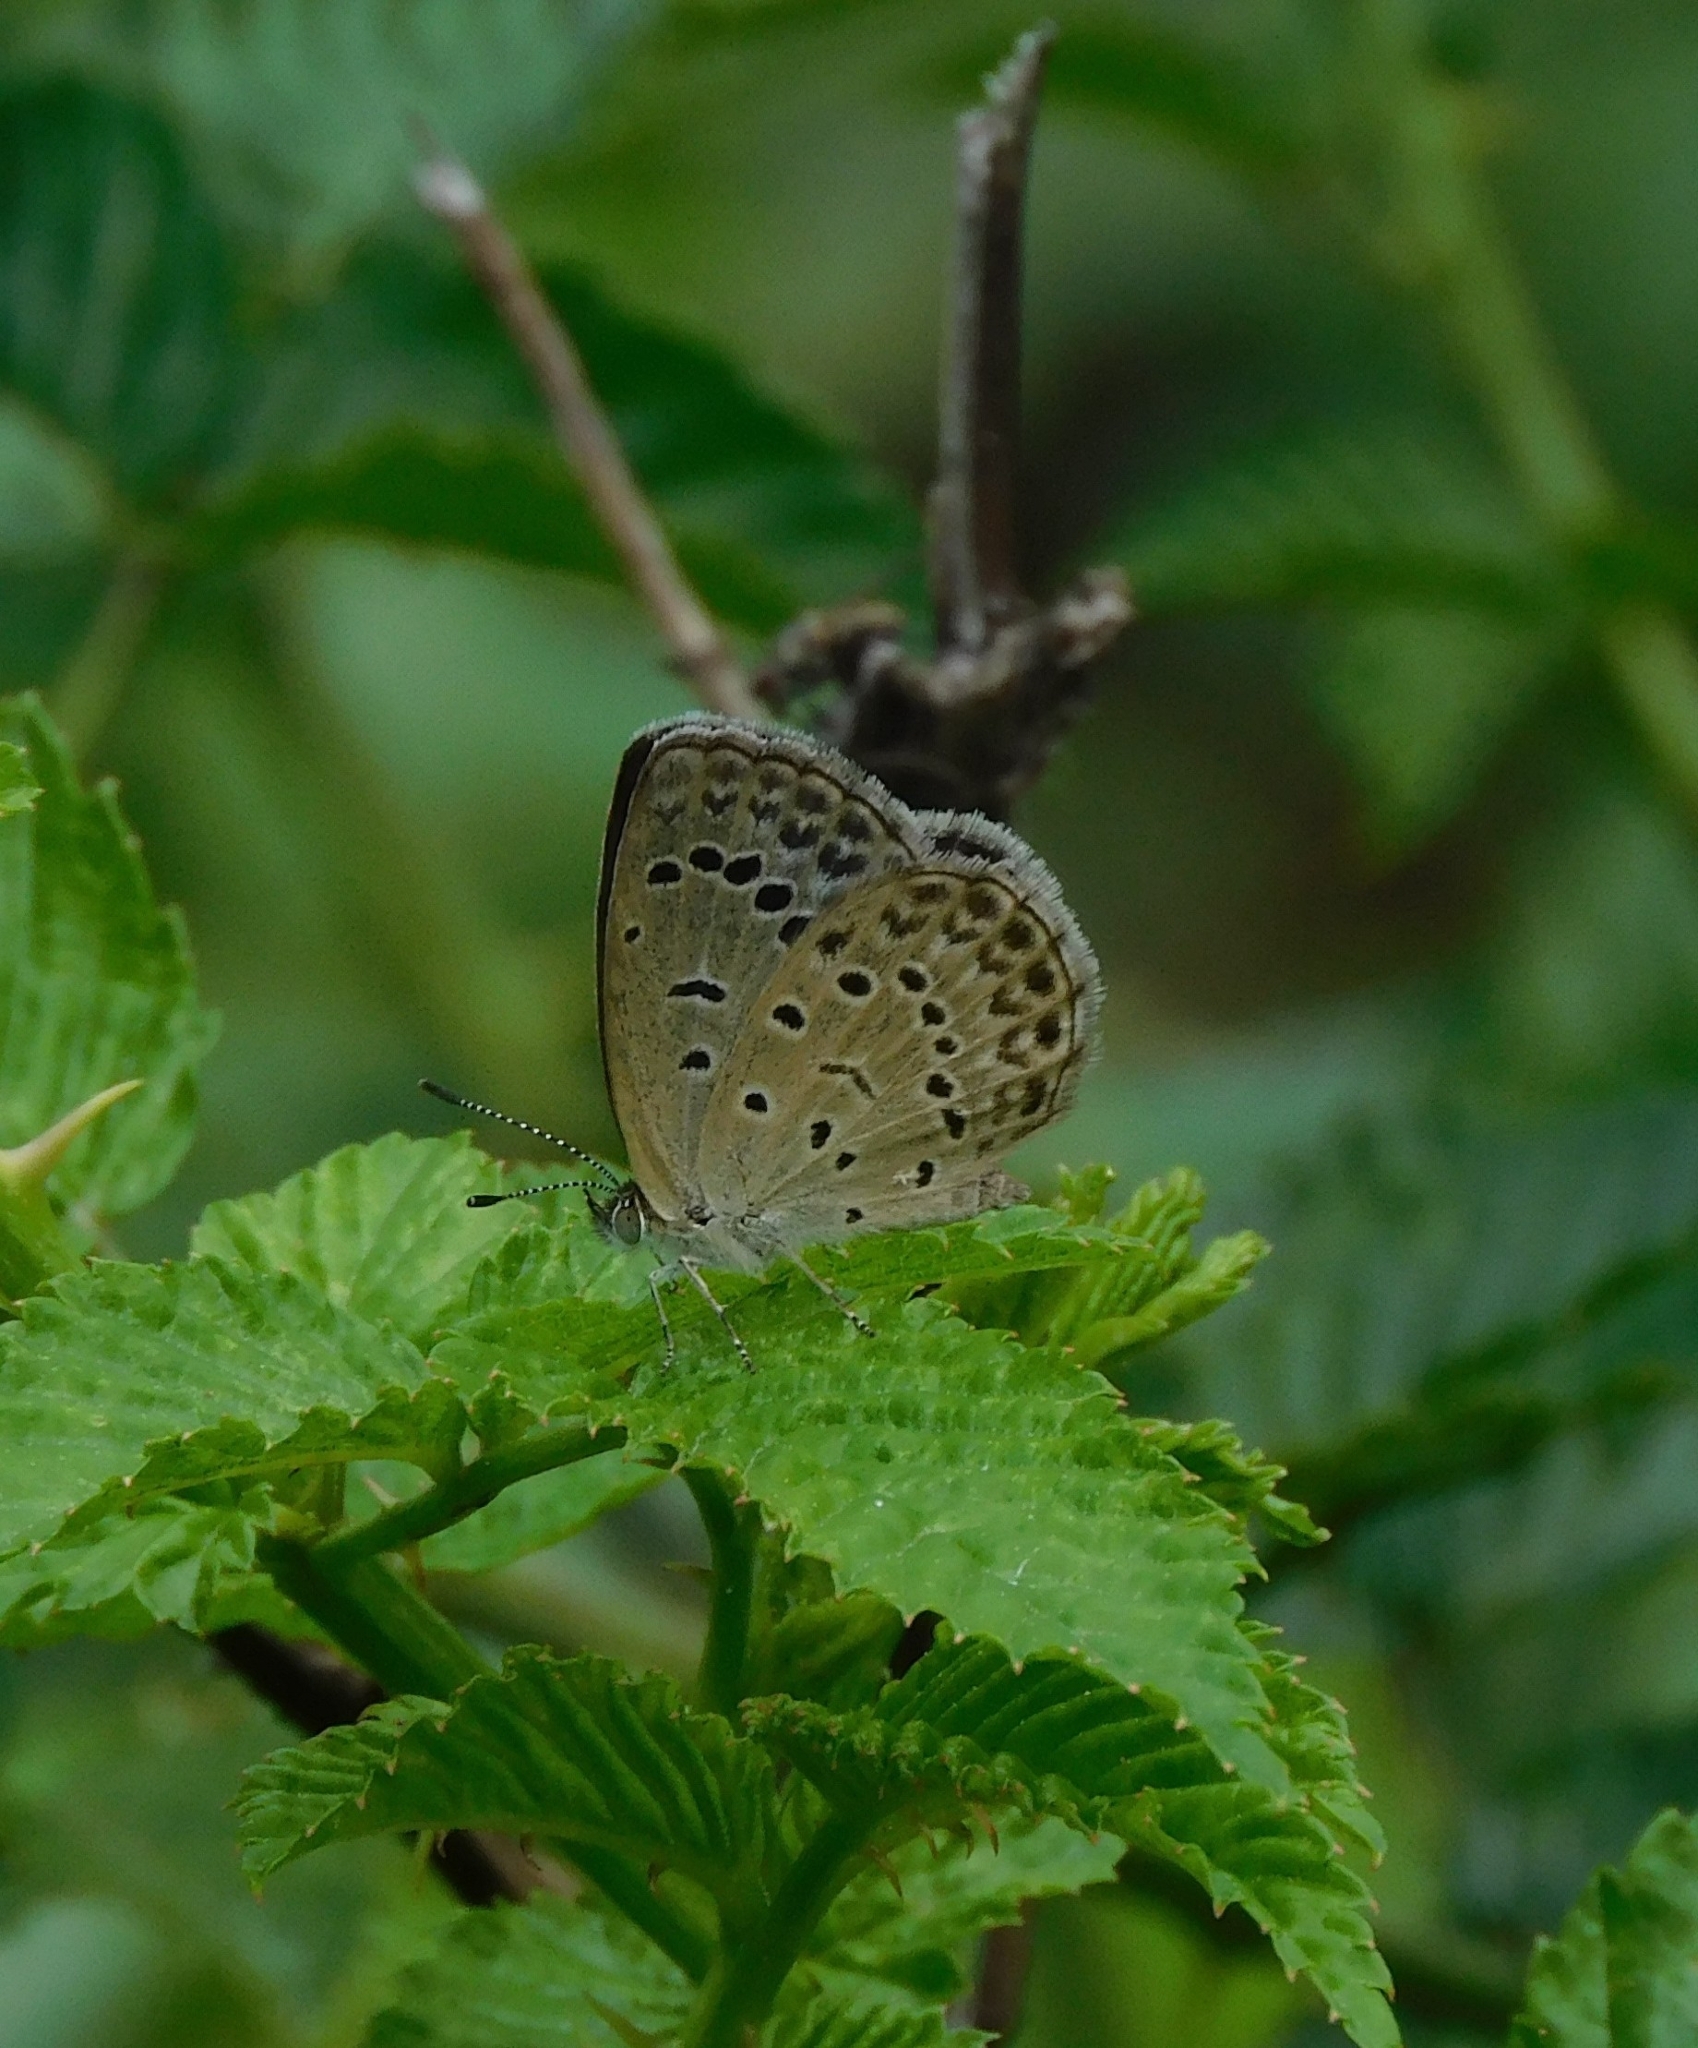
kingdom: Animalia
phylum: Arthropoda
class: Insecta
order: Lepidoptera
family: Lycaenidae
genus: Pseudozizeeria
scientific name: Pseudozizeeria maha
